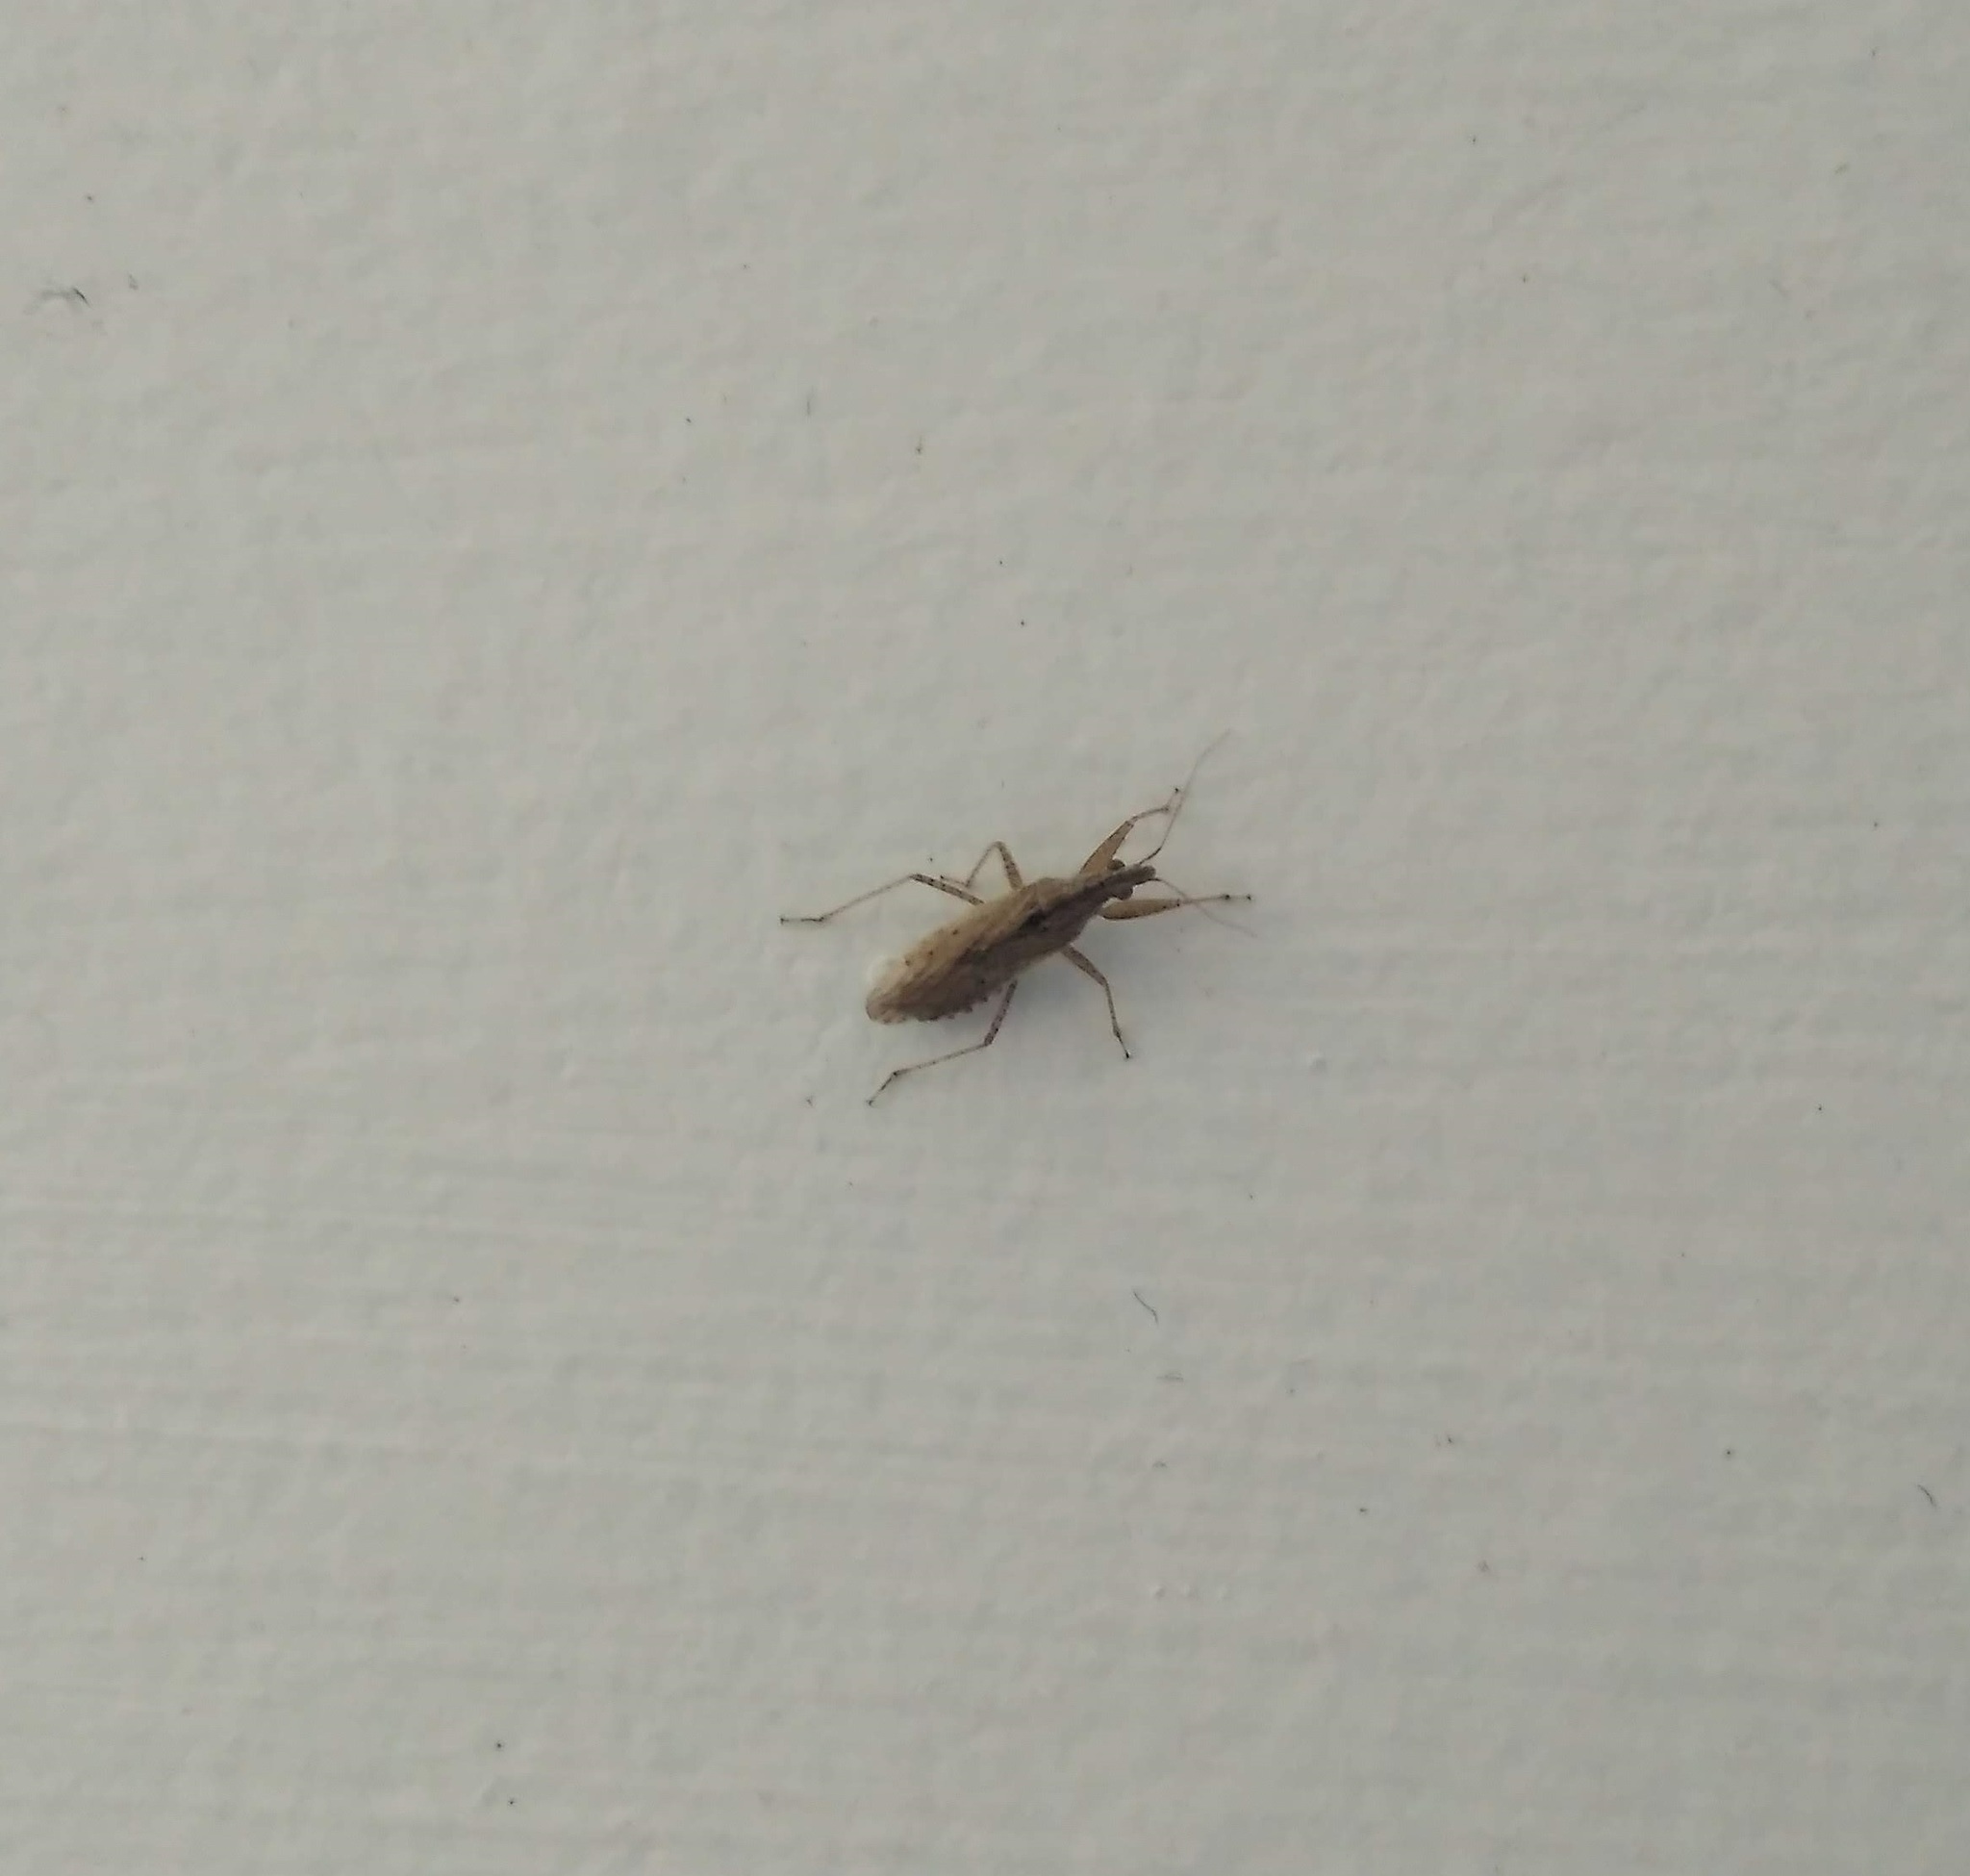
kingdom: Animalia
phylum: Arthropoda
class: Insecta
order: Hemiptera
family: Nabidae
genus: Nabis
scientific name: Nabis punctipennis
